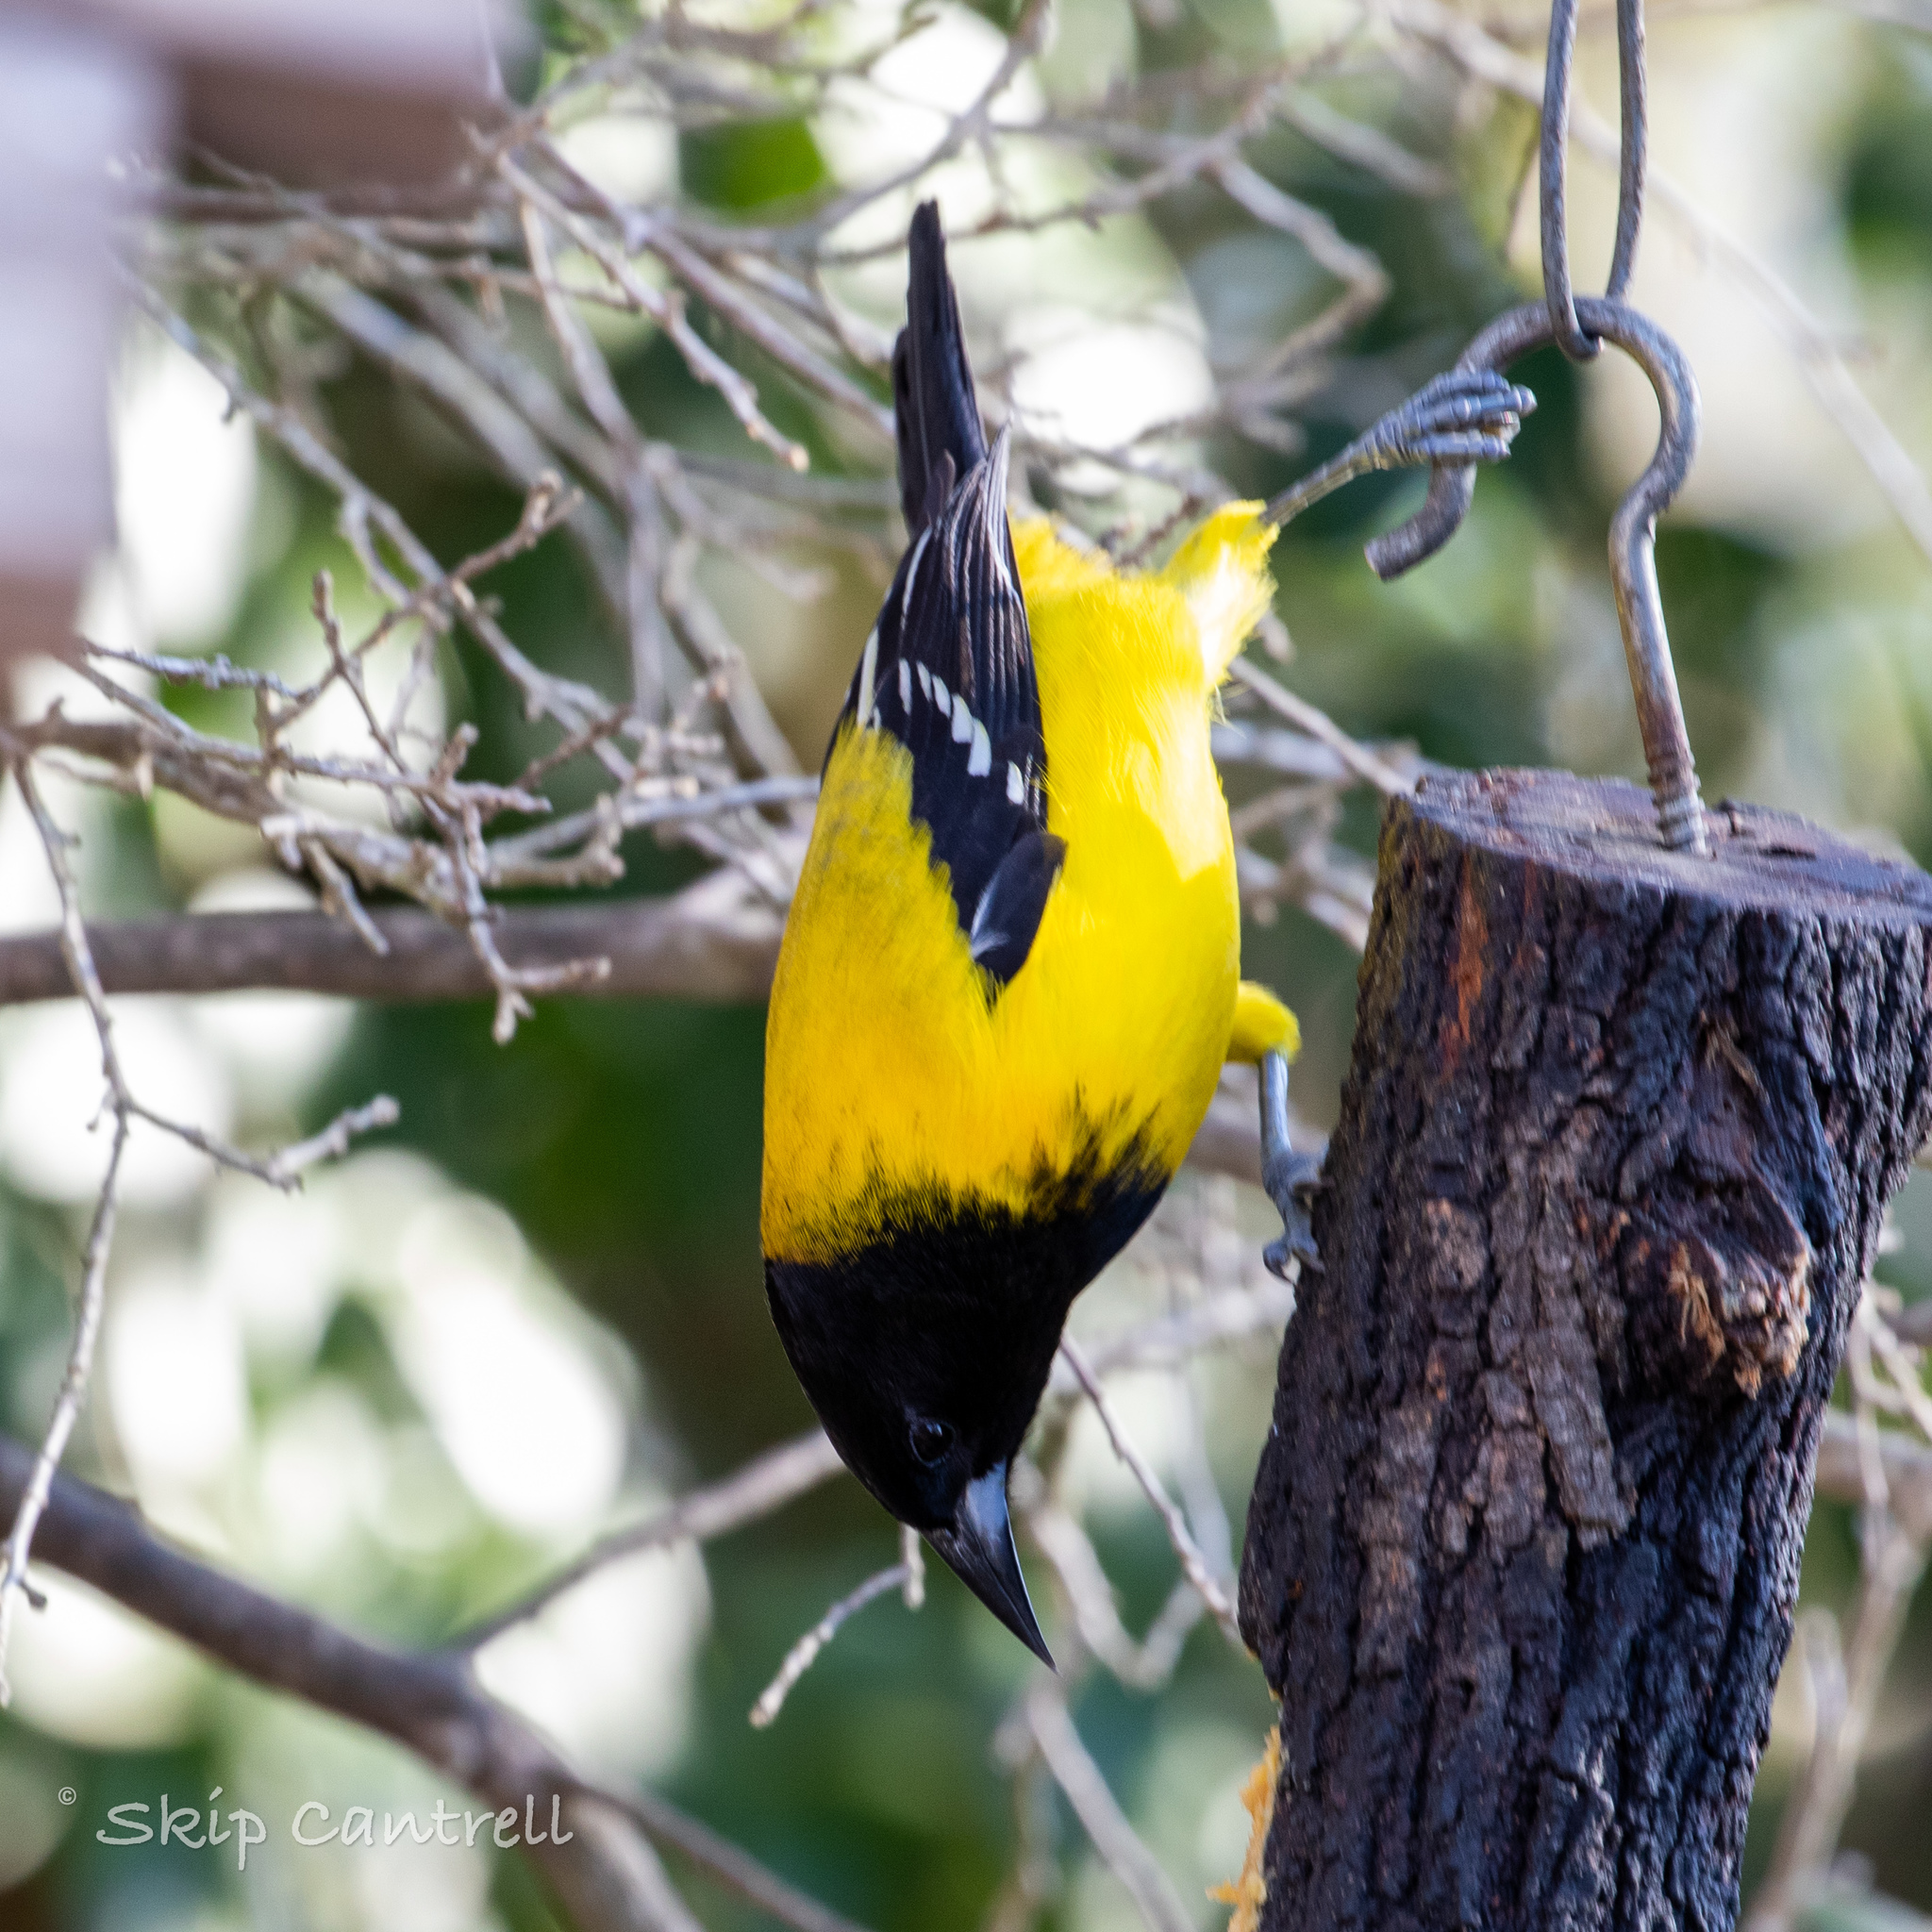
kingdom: Animalia
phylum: Chordata
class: Aves
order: Passeriformes
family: Icteridae
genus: Icterus
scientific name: Icterus graduacauda
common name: Audubon's oriole
